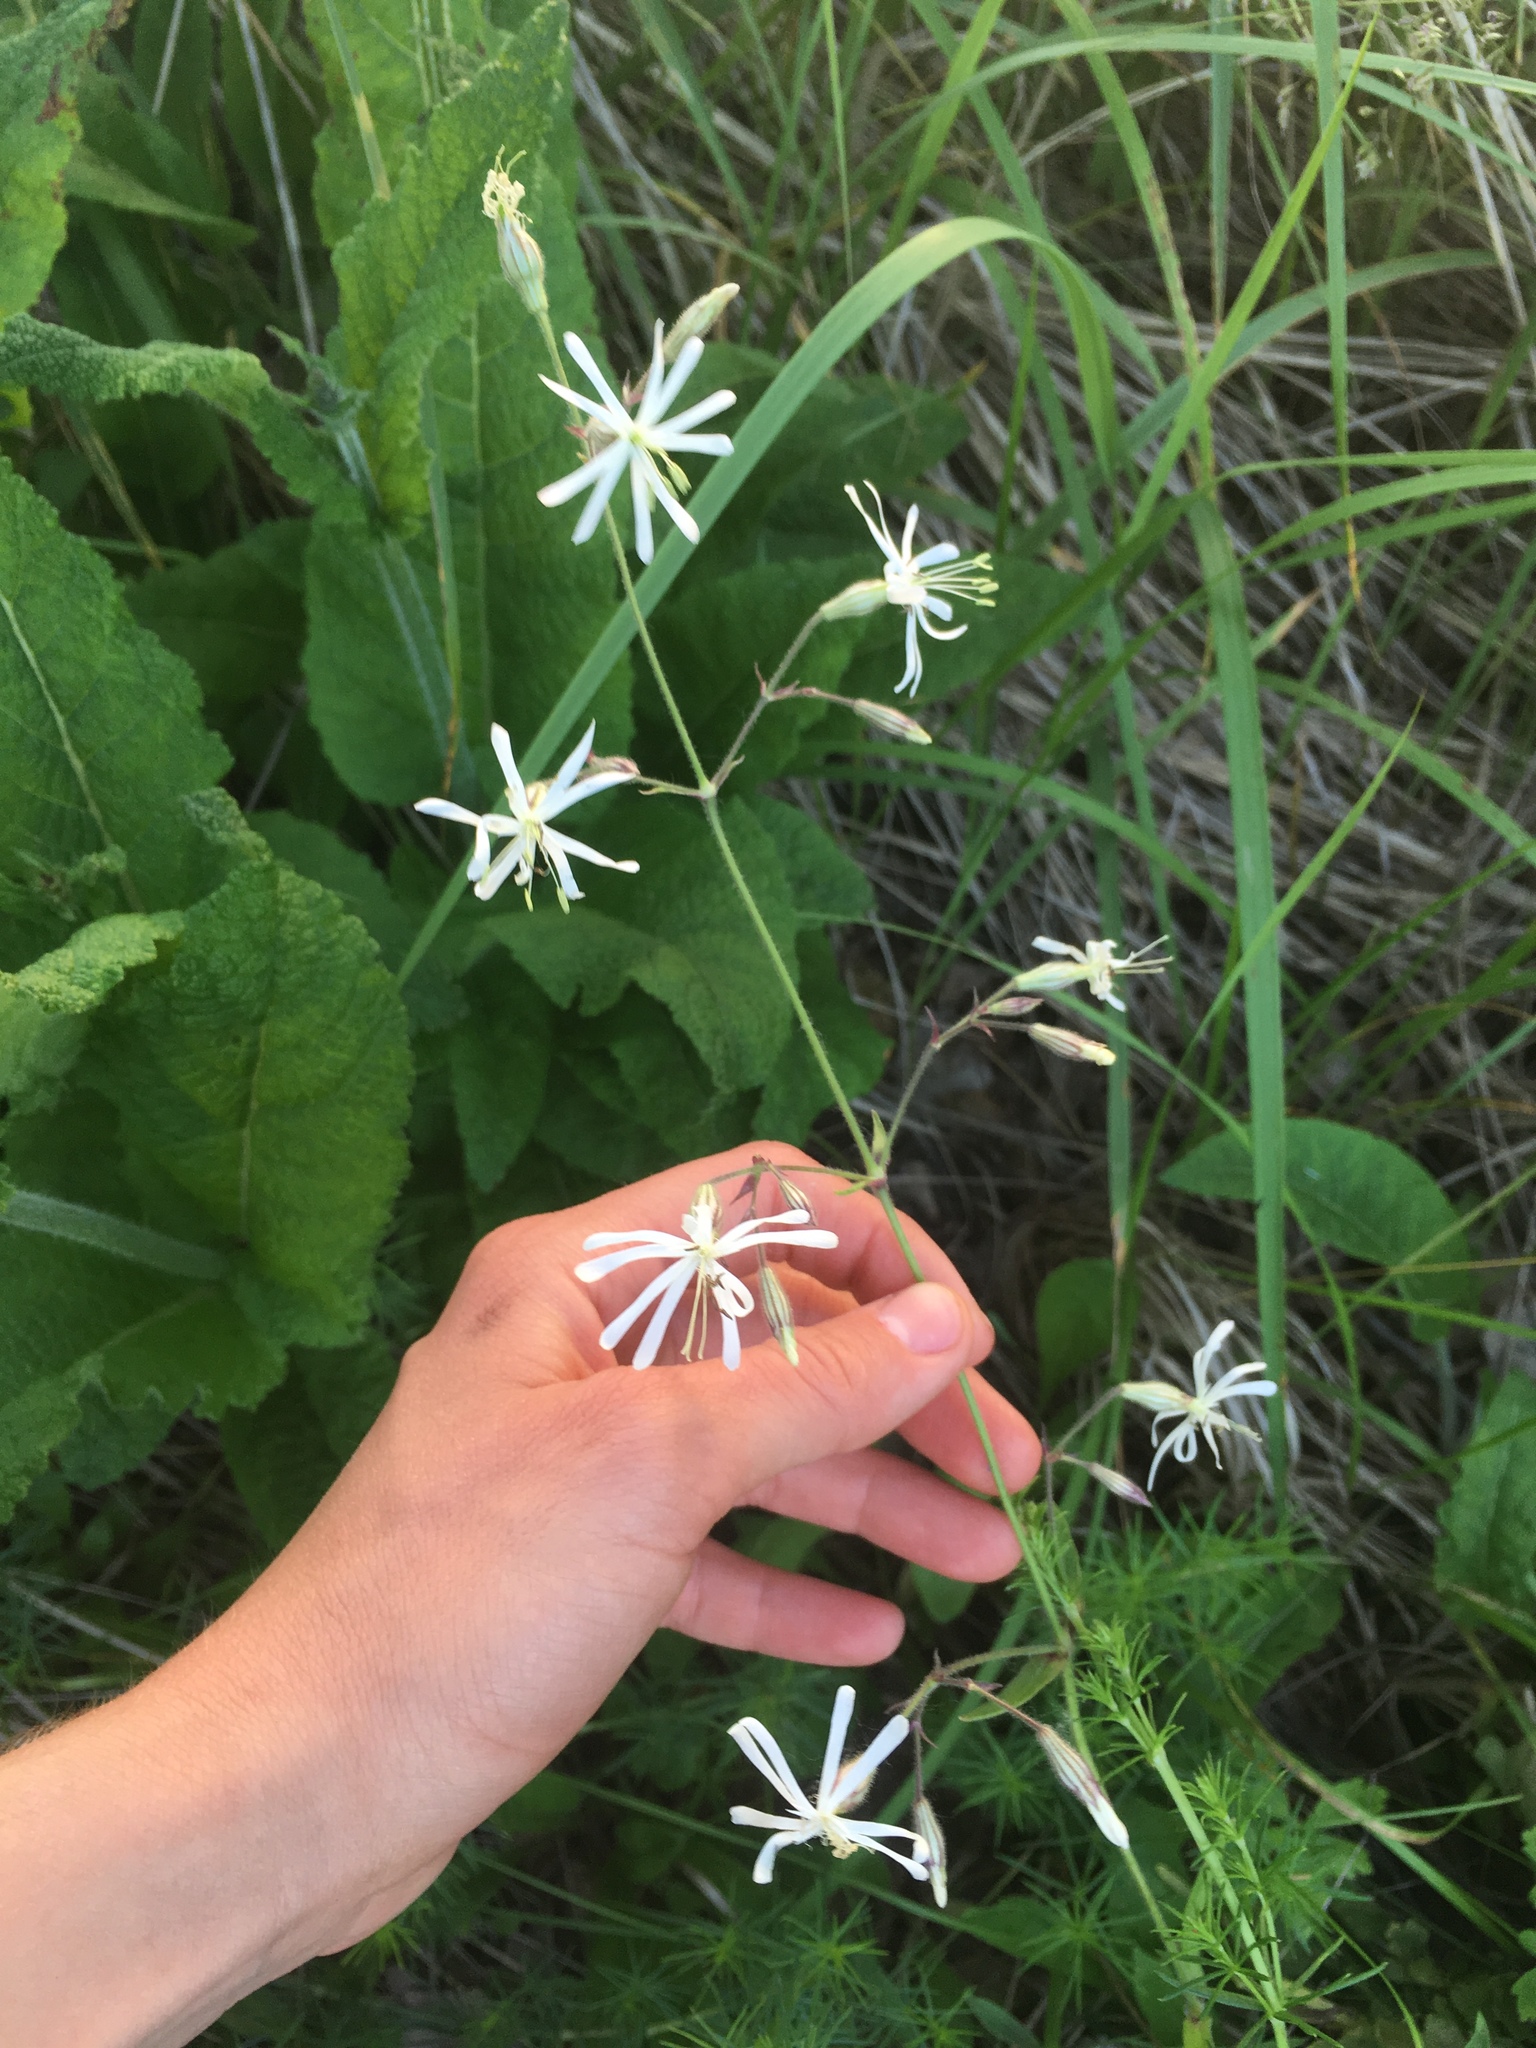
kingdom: Plantae
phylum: Tracheophyta
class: Magnoliopsida
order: Caryophyllales
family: Caryophyllaceae
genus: Silene
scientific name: Silene nutans
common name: Nottingham catchfly
